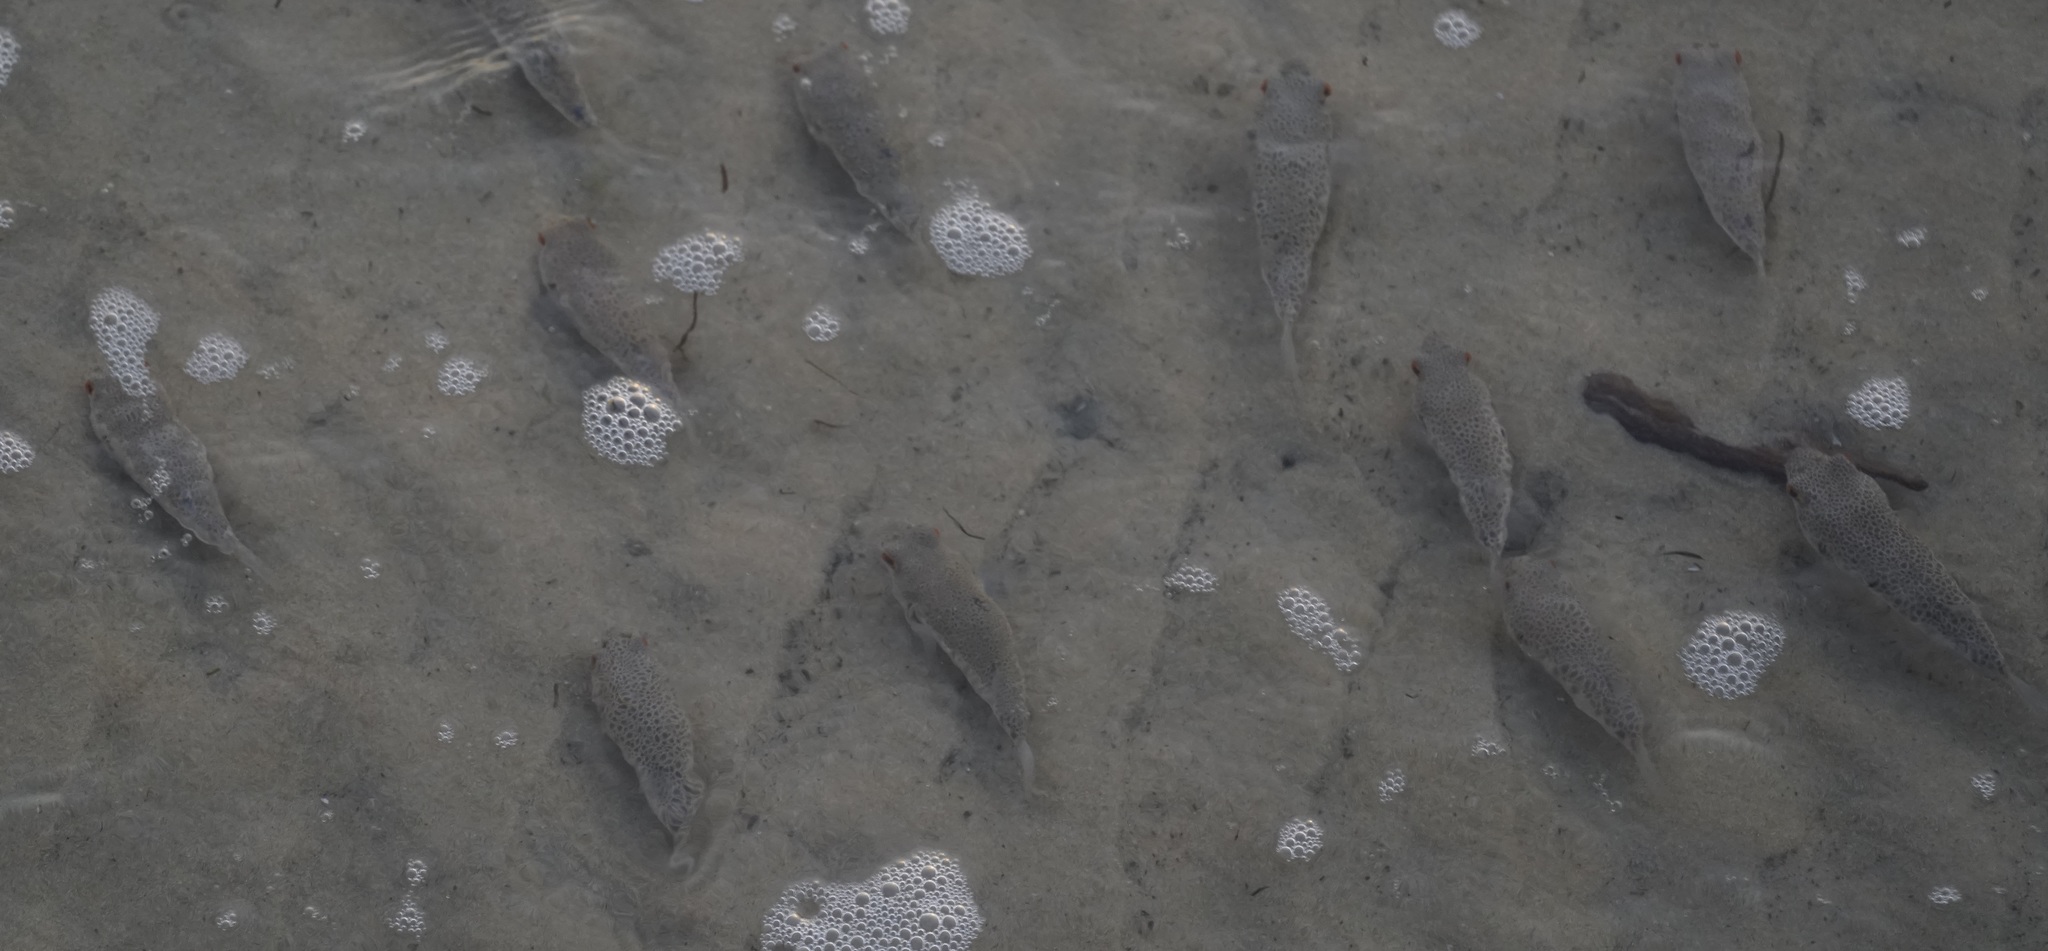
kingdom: Animalia
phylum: Chordata
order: Tetraodontiformes
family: Tetraodontidae
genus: Tetractenos
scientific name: Tetractenos hamiltoni
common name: Common toadfish
